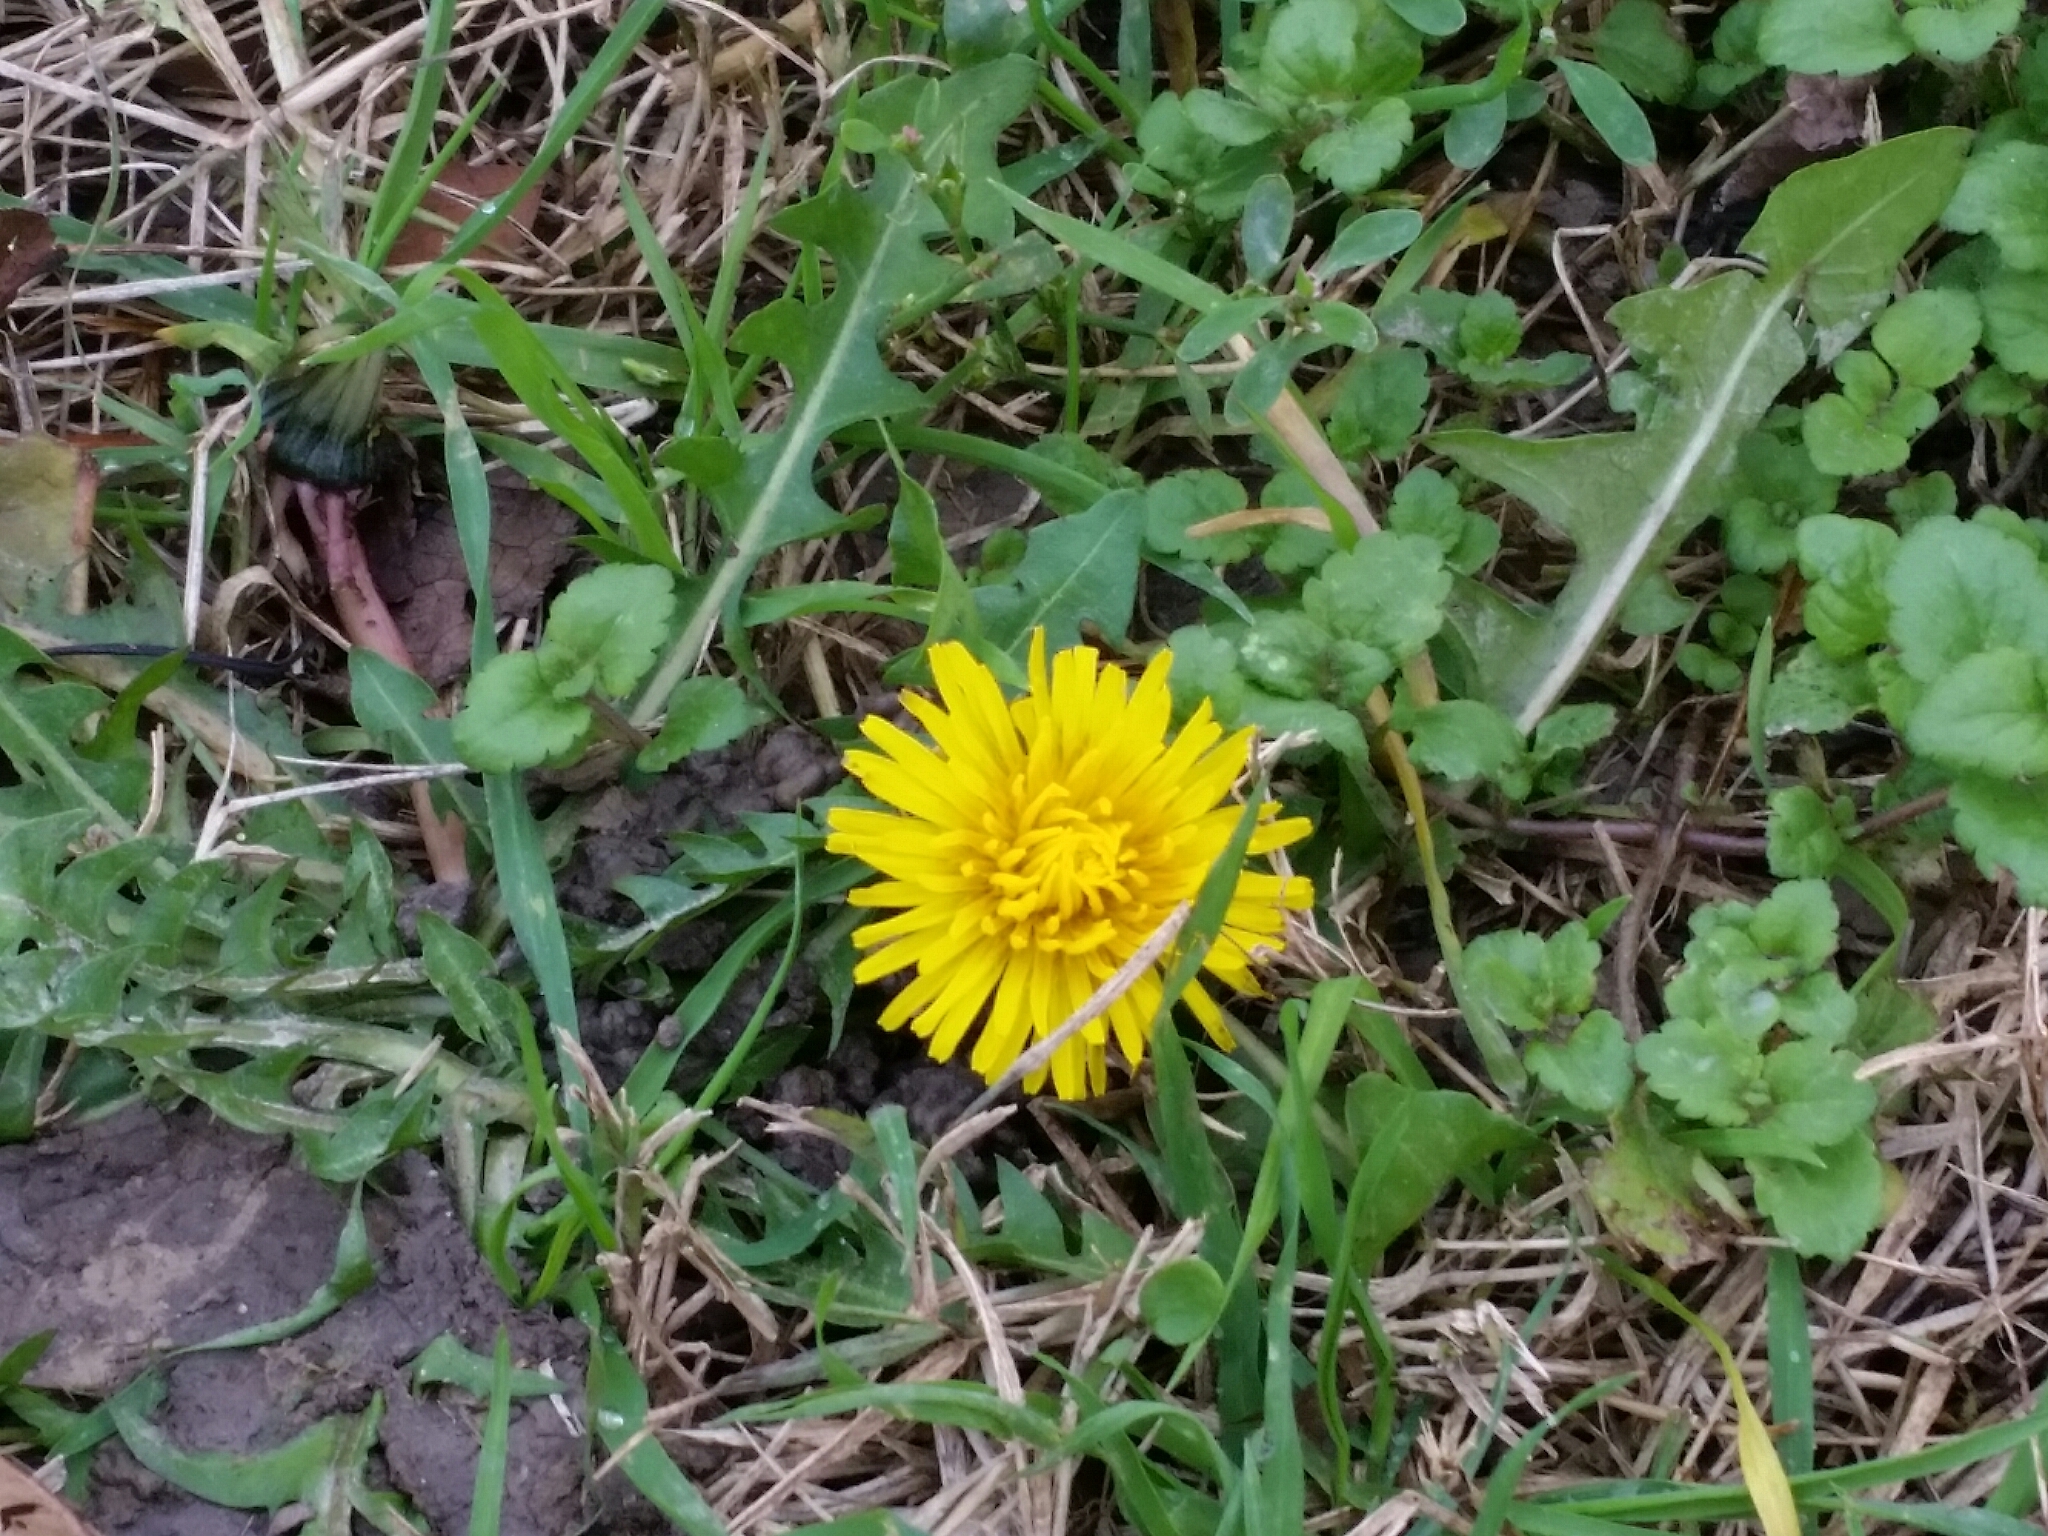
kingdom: Plantae
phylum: Tracheophyta
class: Magnoliopsida
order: Asterales
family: Asteraceae
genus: Taraxacum
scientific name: Taraxacum officinale
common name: Common dandelion
